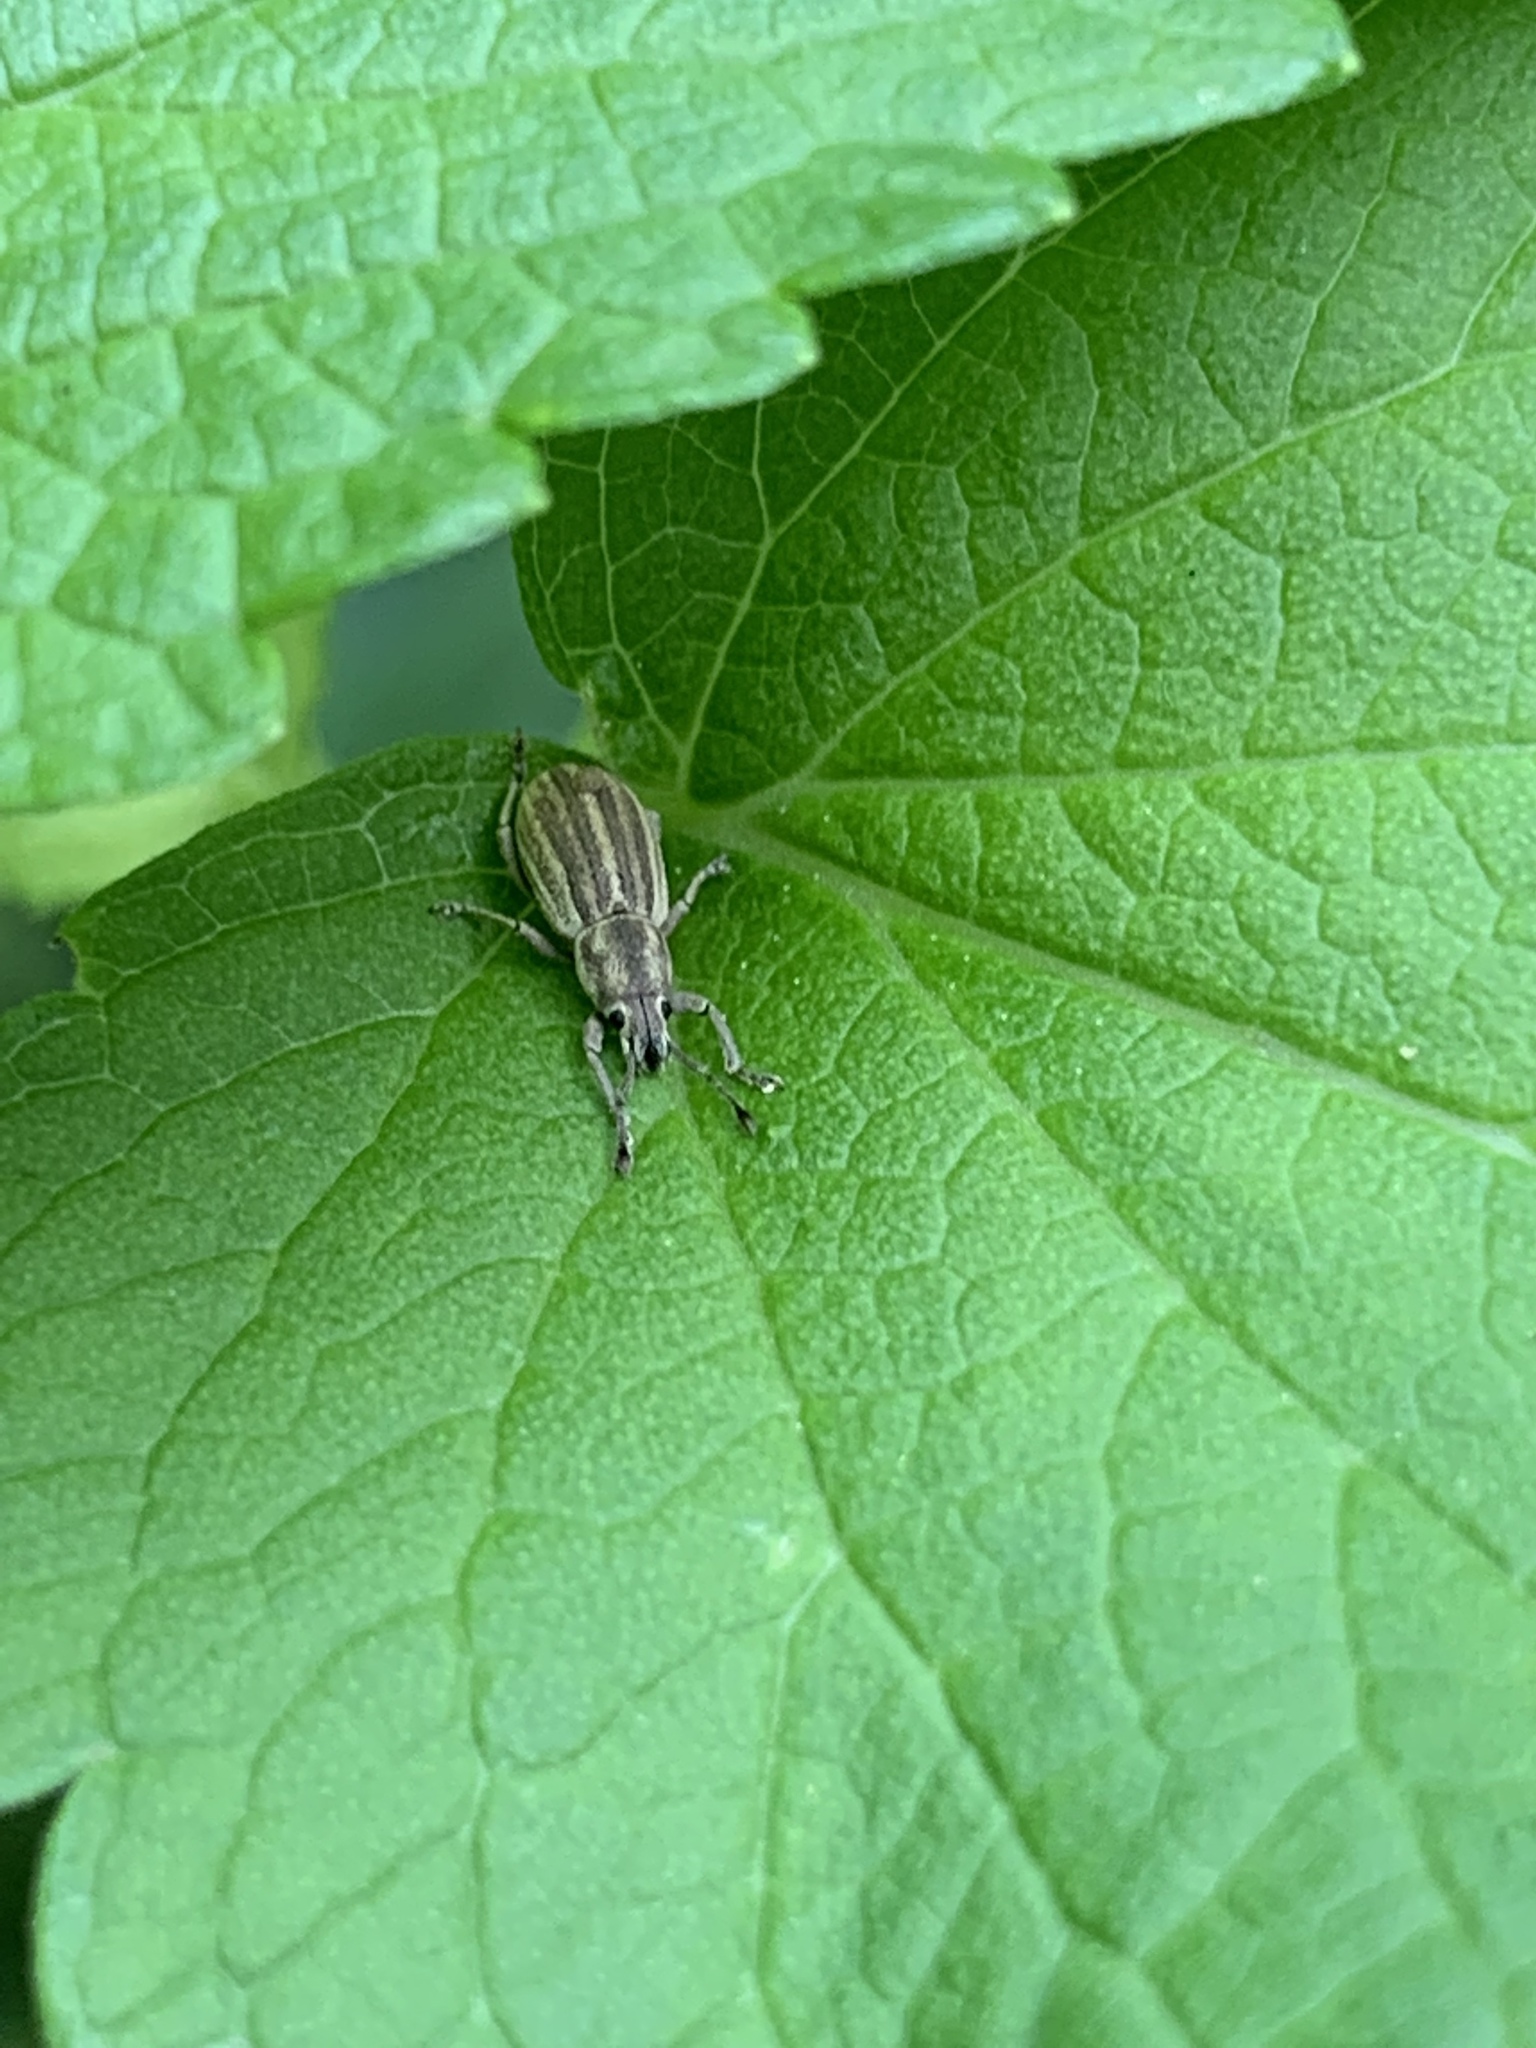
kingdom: Animalia
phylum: Arthropoda
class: Insecta
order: Coleoptera
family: Curculionidae
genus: Aphrastus
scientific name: Aphrastus taeniatus
